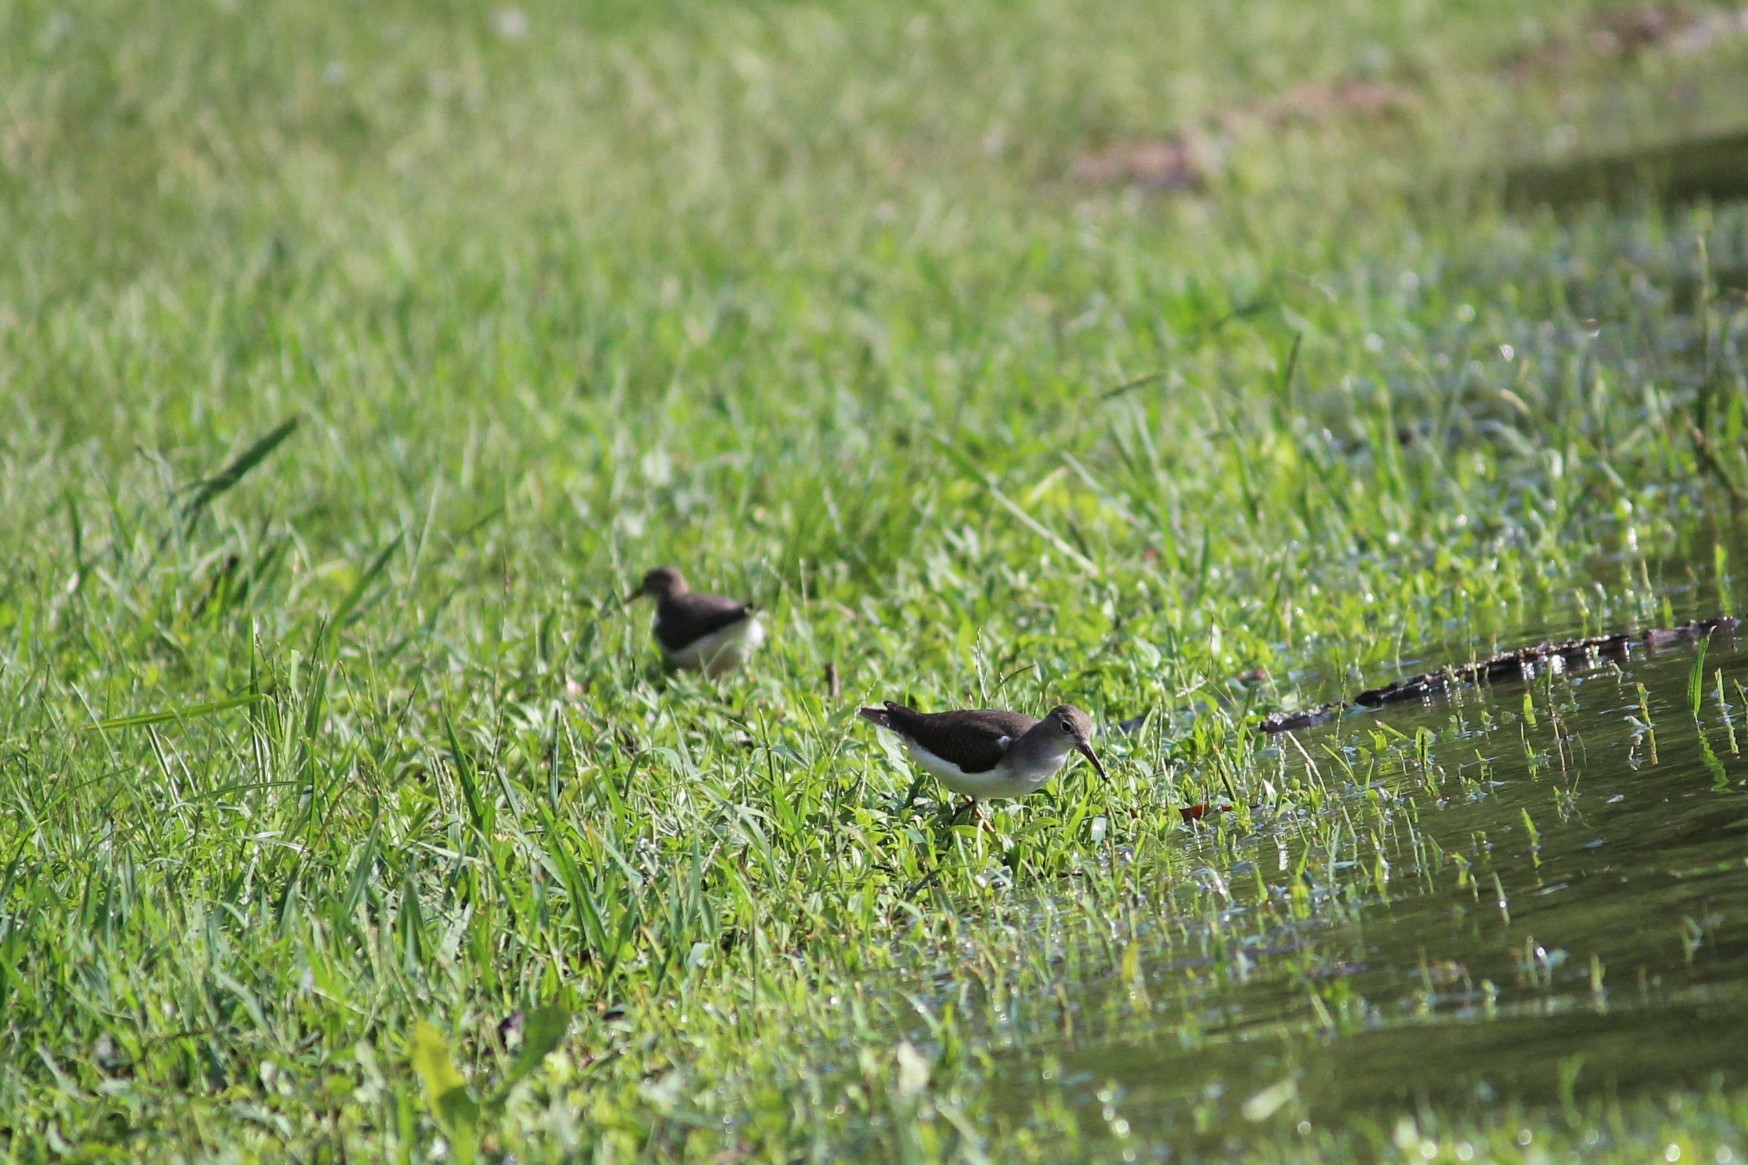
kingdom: Animalia
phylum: Chordata
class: Aves
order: Charadriiformes
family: Scolopacidae
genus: Actitis
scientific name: Actitis macularius
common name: Spotted sandpiper
